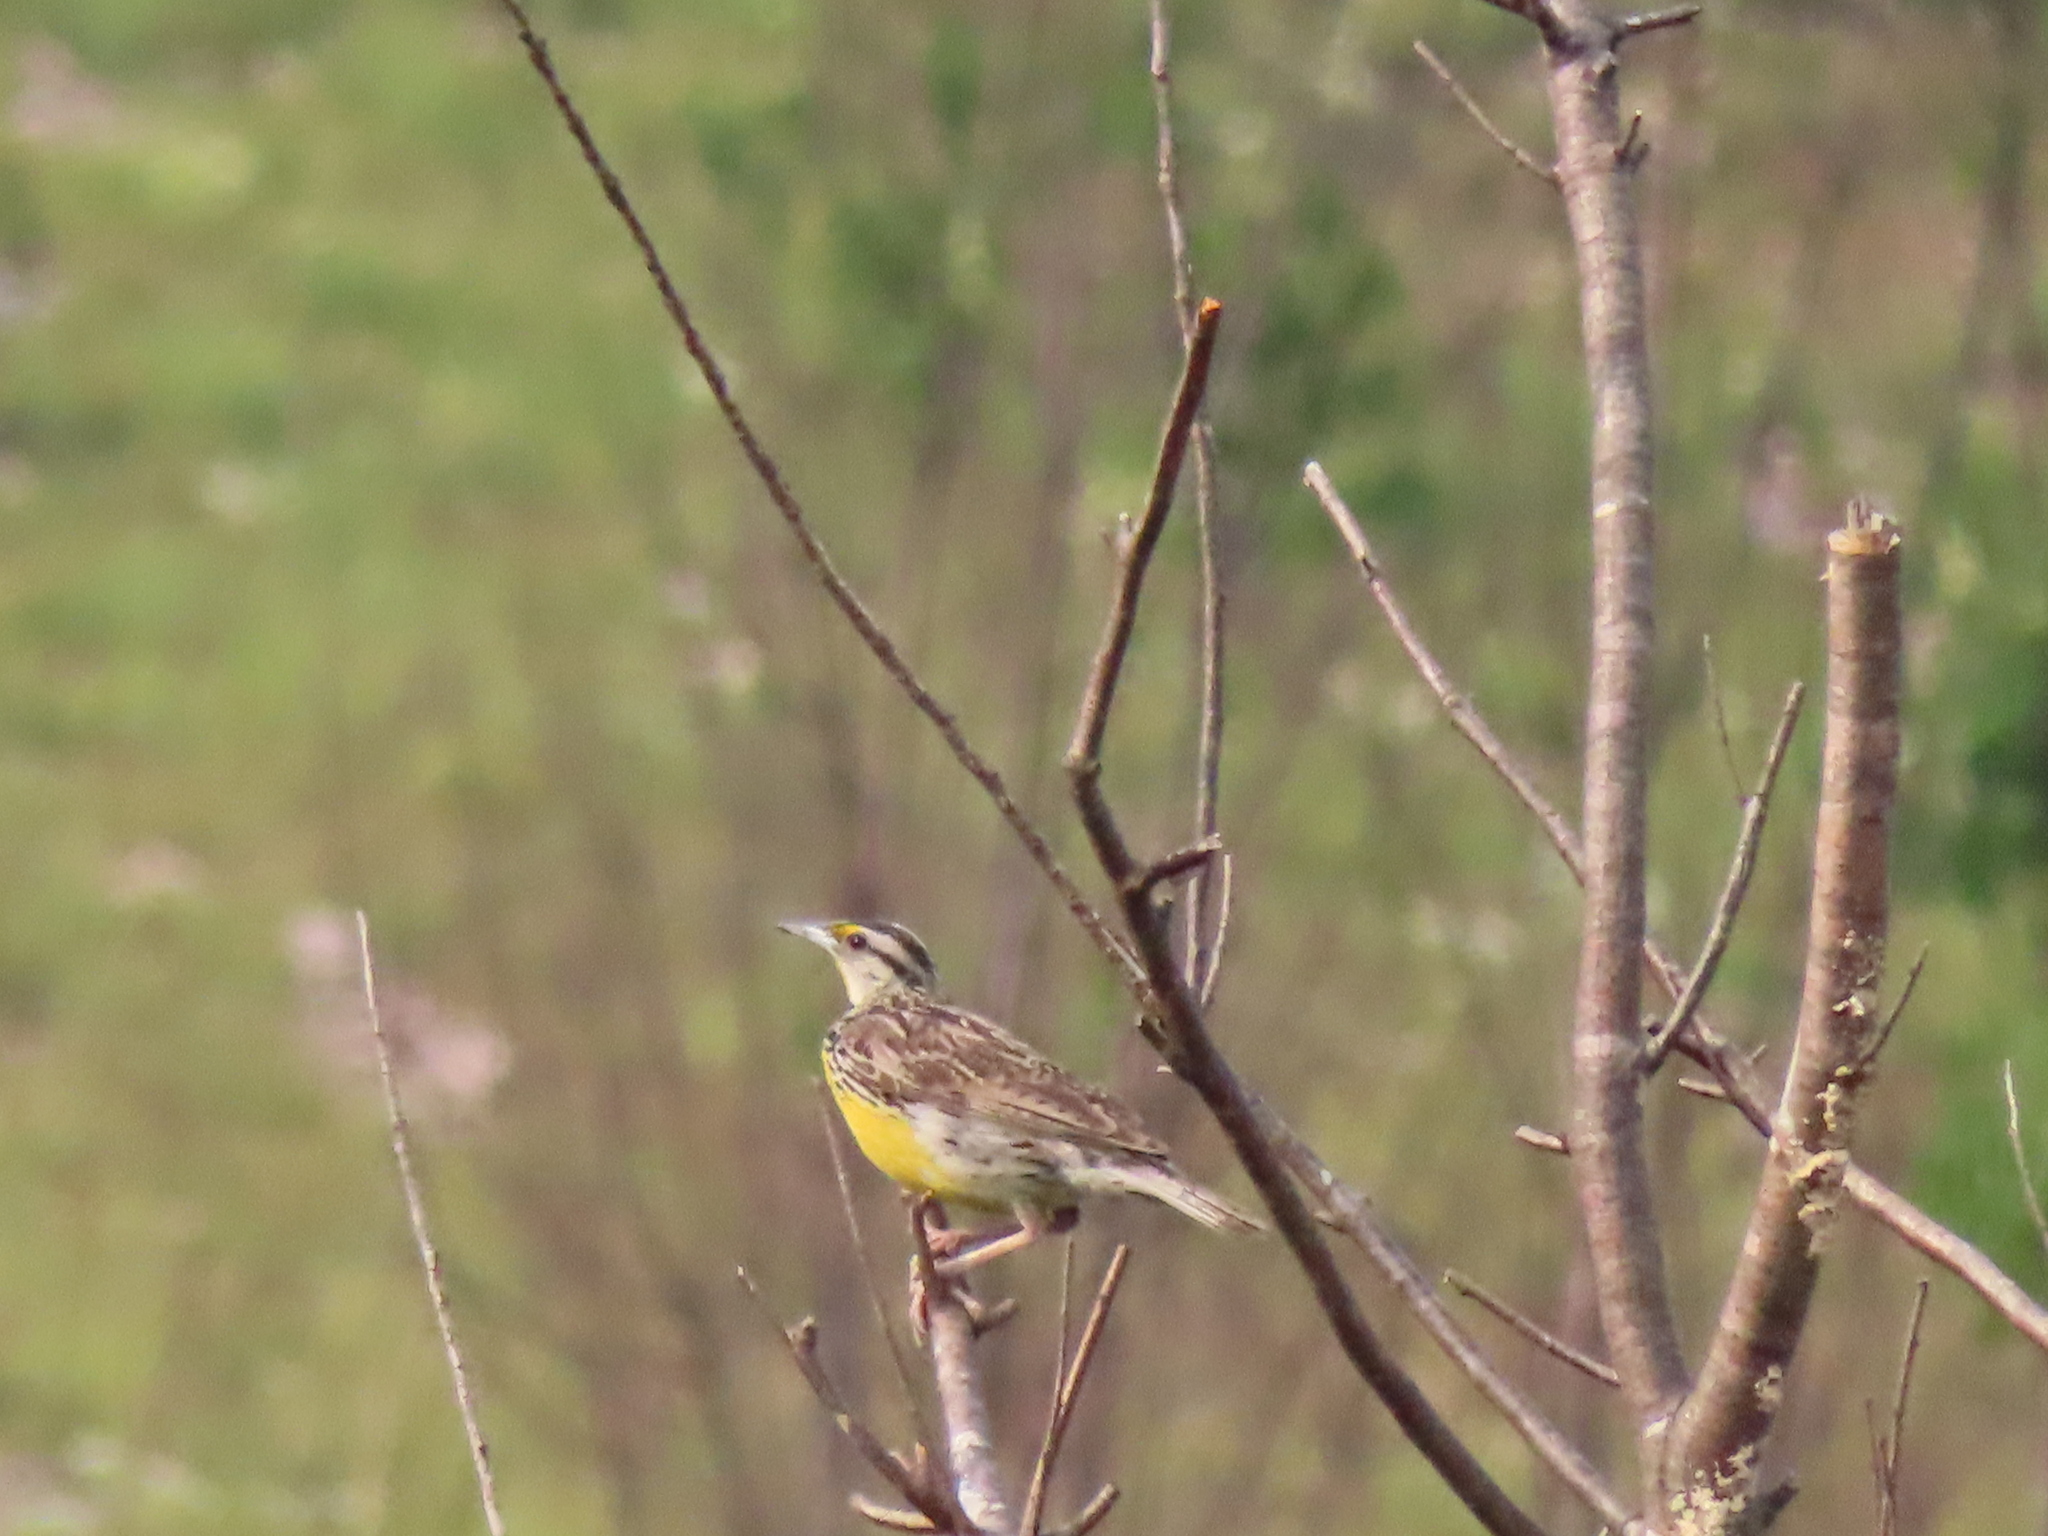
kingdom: Animalia
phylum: Chordata
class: Aves
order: Passeriformes
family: Icteridae
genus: Sturnella
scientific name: Sturnella magna
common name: Eastern meadowlark
